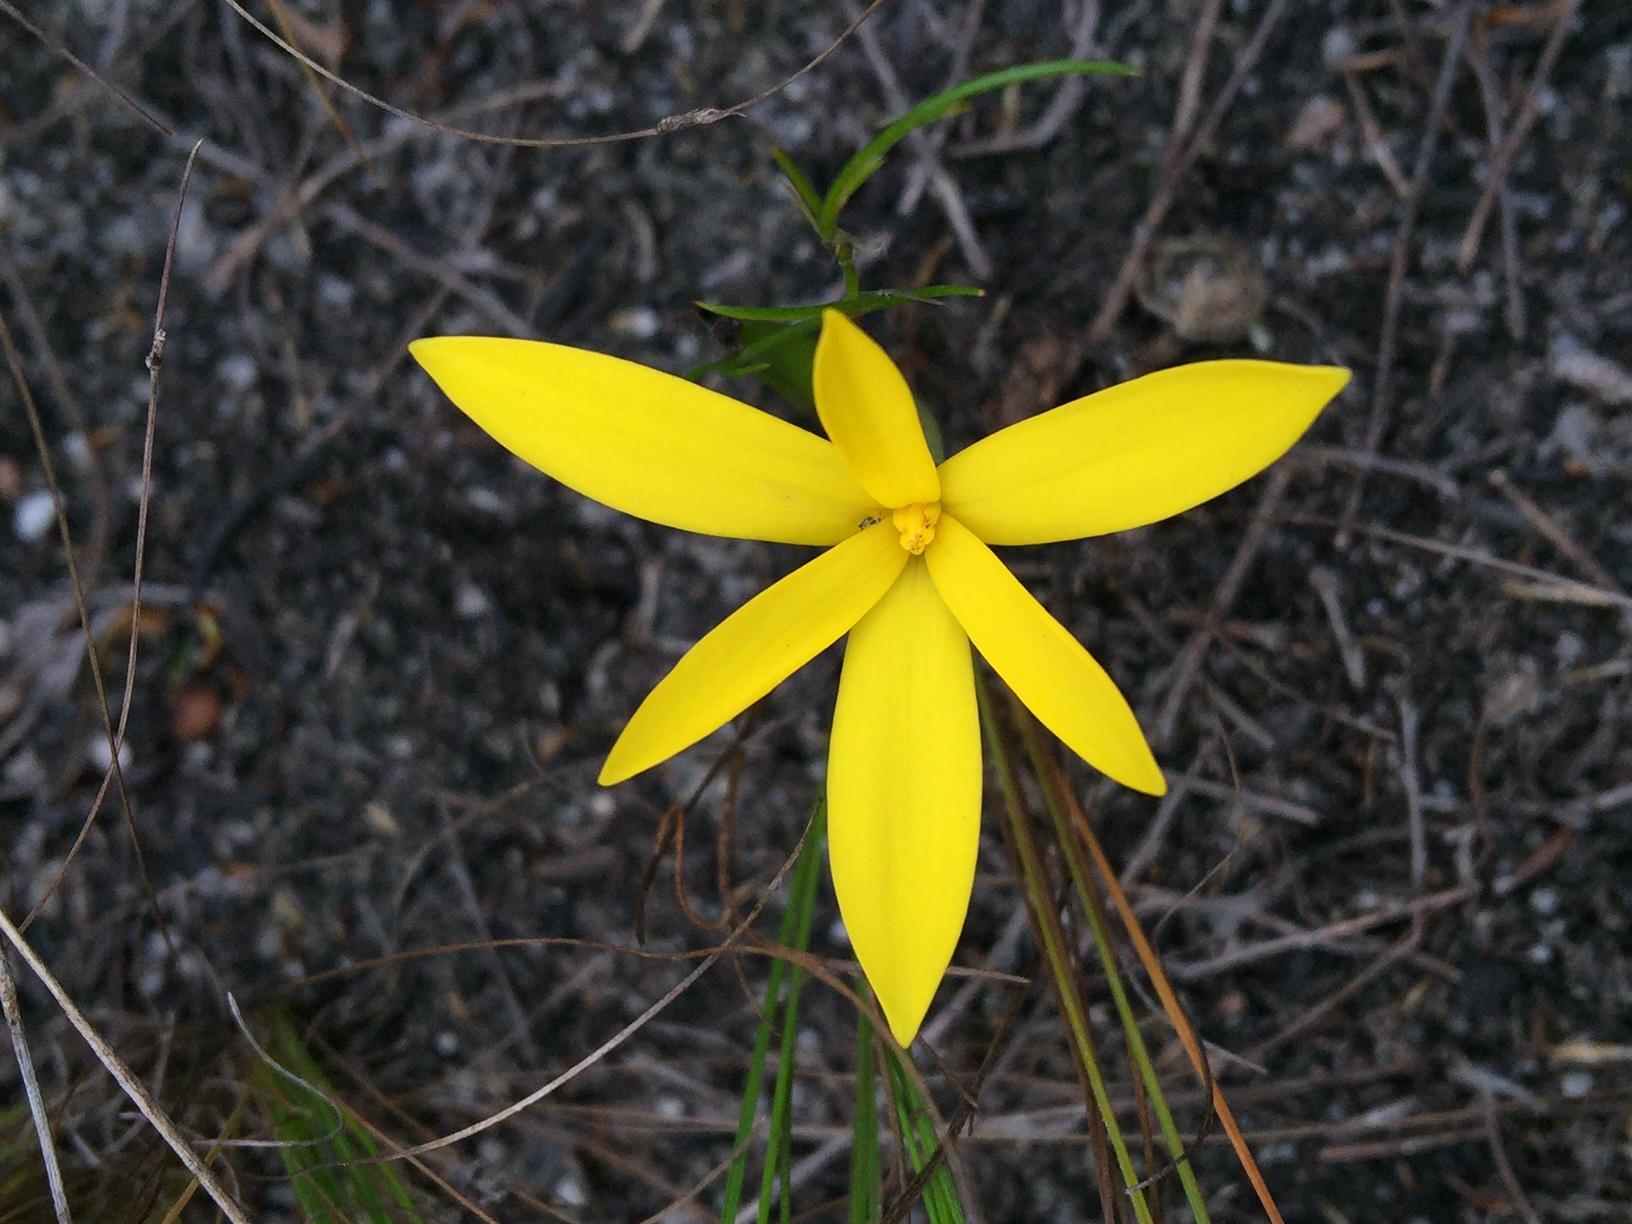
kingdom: Plantae
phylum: Tracheophyta
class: Liliopsida
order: Asparagales
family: Hypoxidaceae
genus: Pauridia
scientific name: Pauridia monophylla
